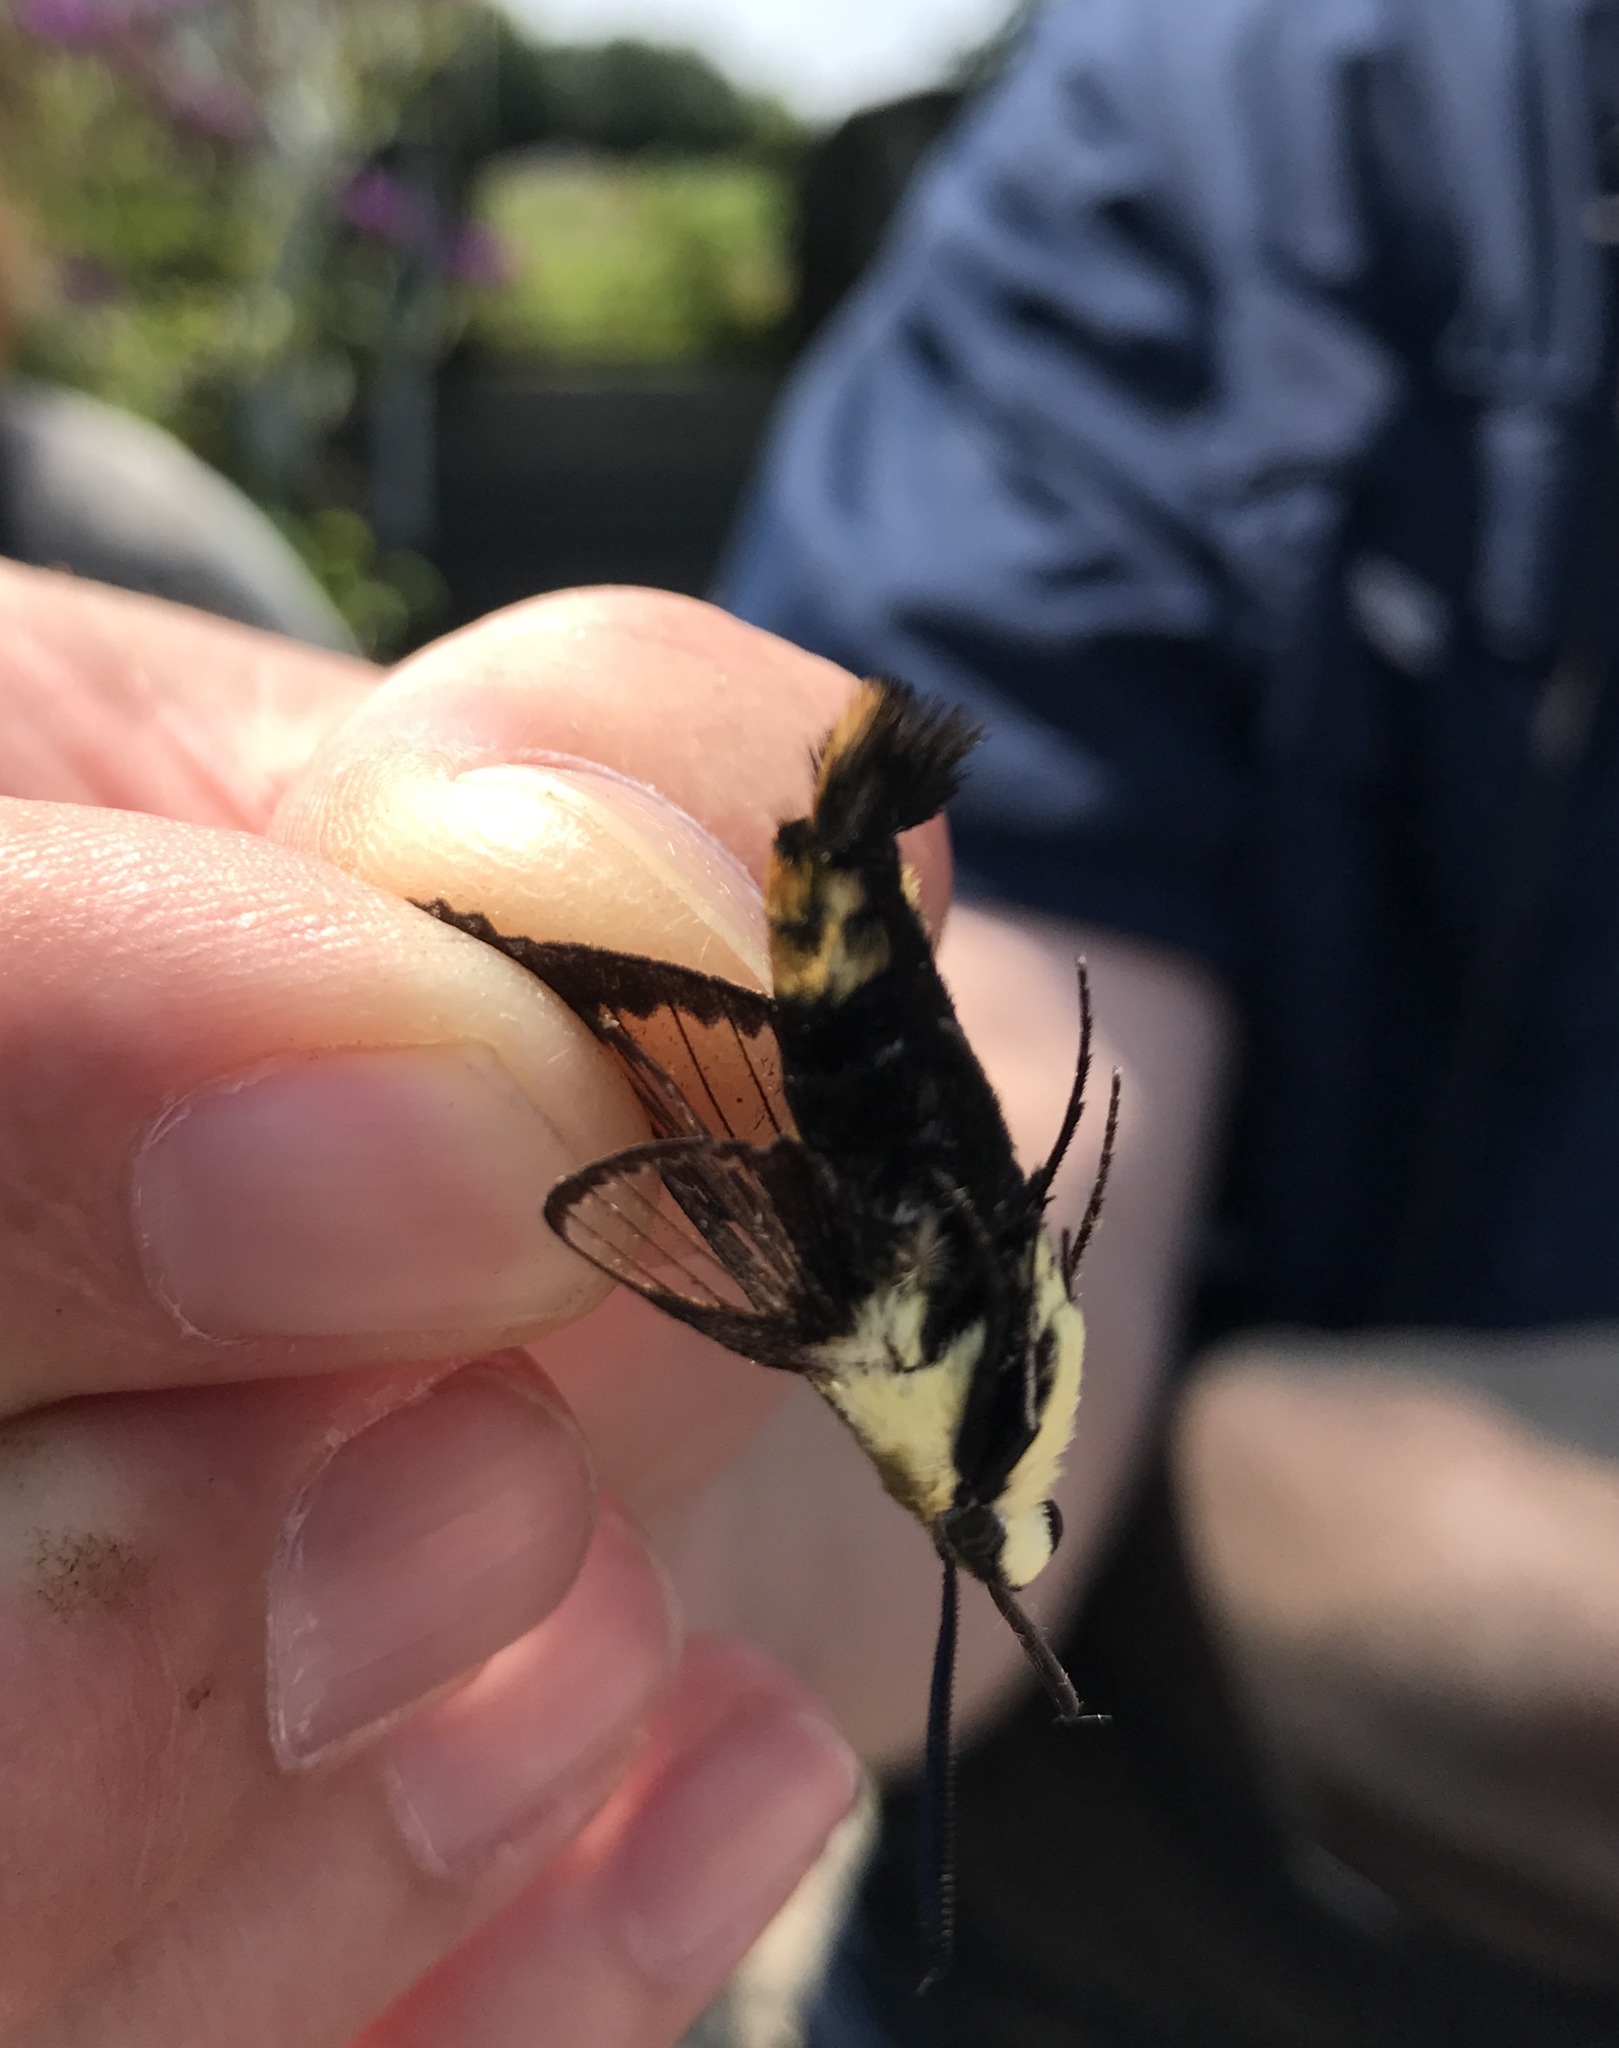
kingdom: Animalia
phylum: Arthropoda
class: Insecta
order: Lepidoptera
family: Sphingidae
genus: Hemaris
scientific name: Hemaris diffinis
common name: Bumblebee moth
